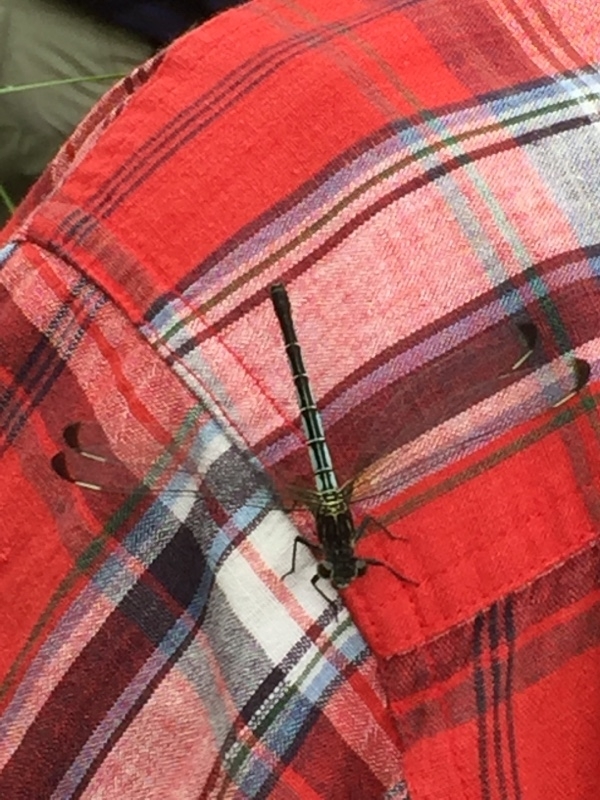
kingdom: Animalia
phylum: Arthropoda
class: Insecta
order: Odonata
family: Euphaeidae
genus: Epallage
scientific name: Epallage fatime
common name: Odalisque
